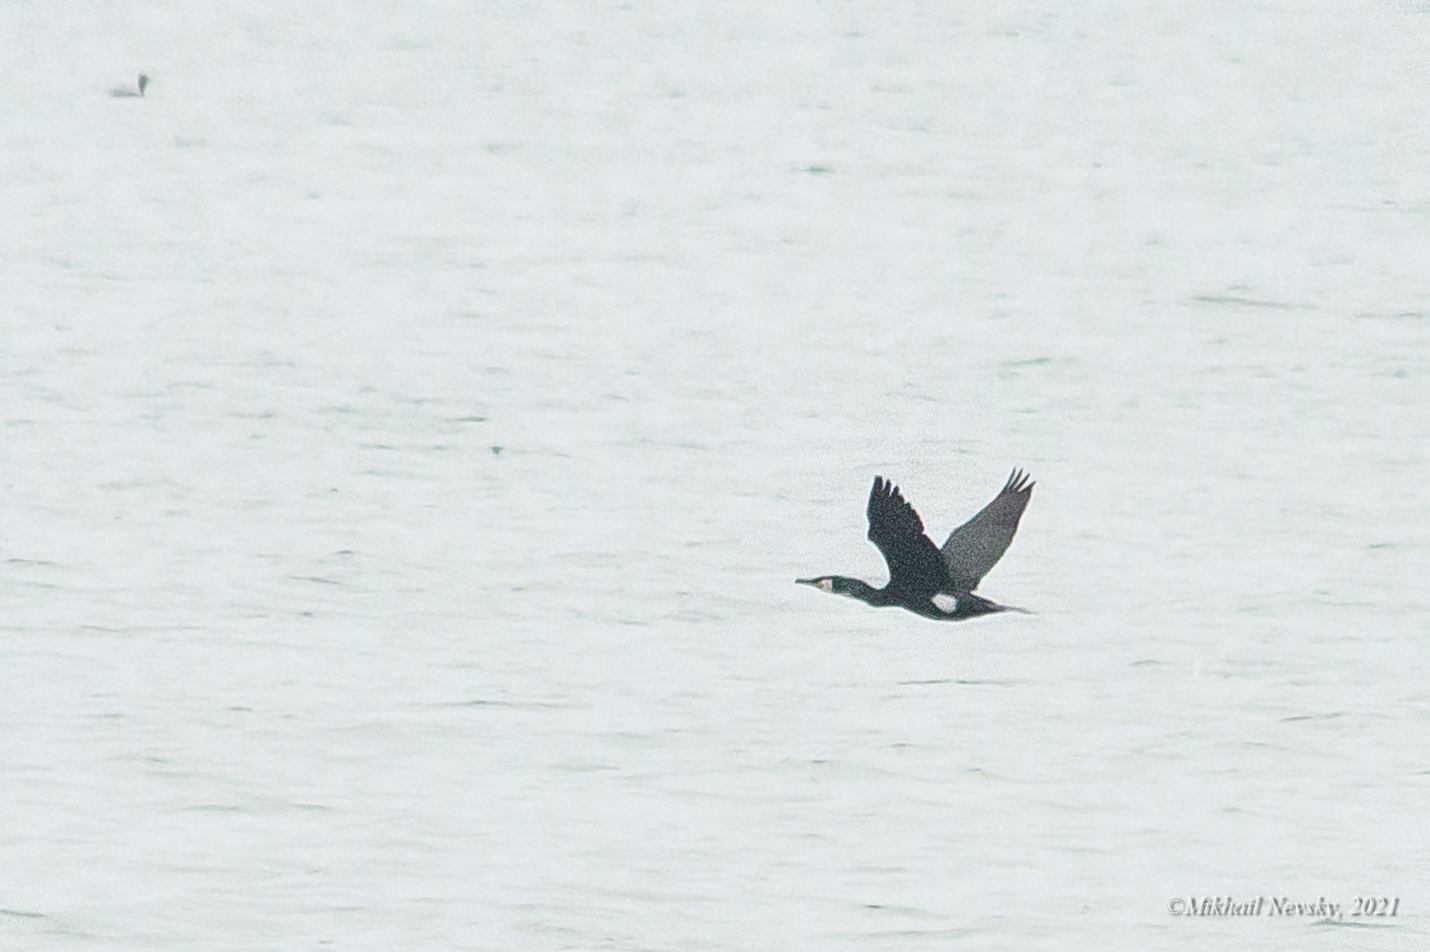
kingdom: Animalia
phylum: Chordata
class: Aves
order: Suliformes
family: Phalacrocoracidae
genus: Phalacrocorax
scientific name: Phalacrocorax capillatus
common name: Japanese cormorant
